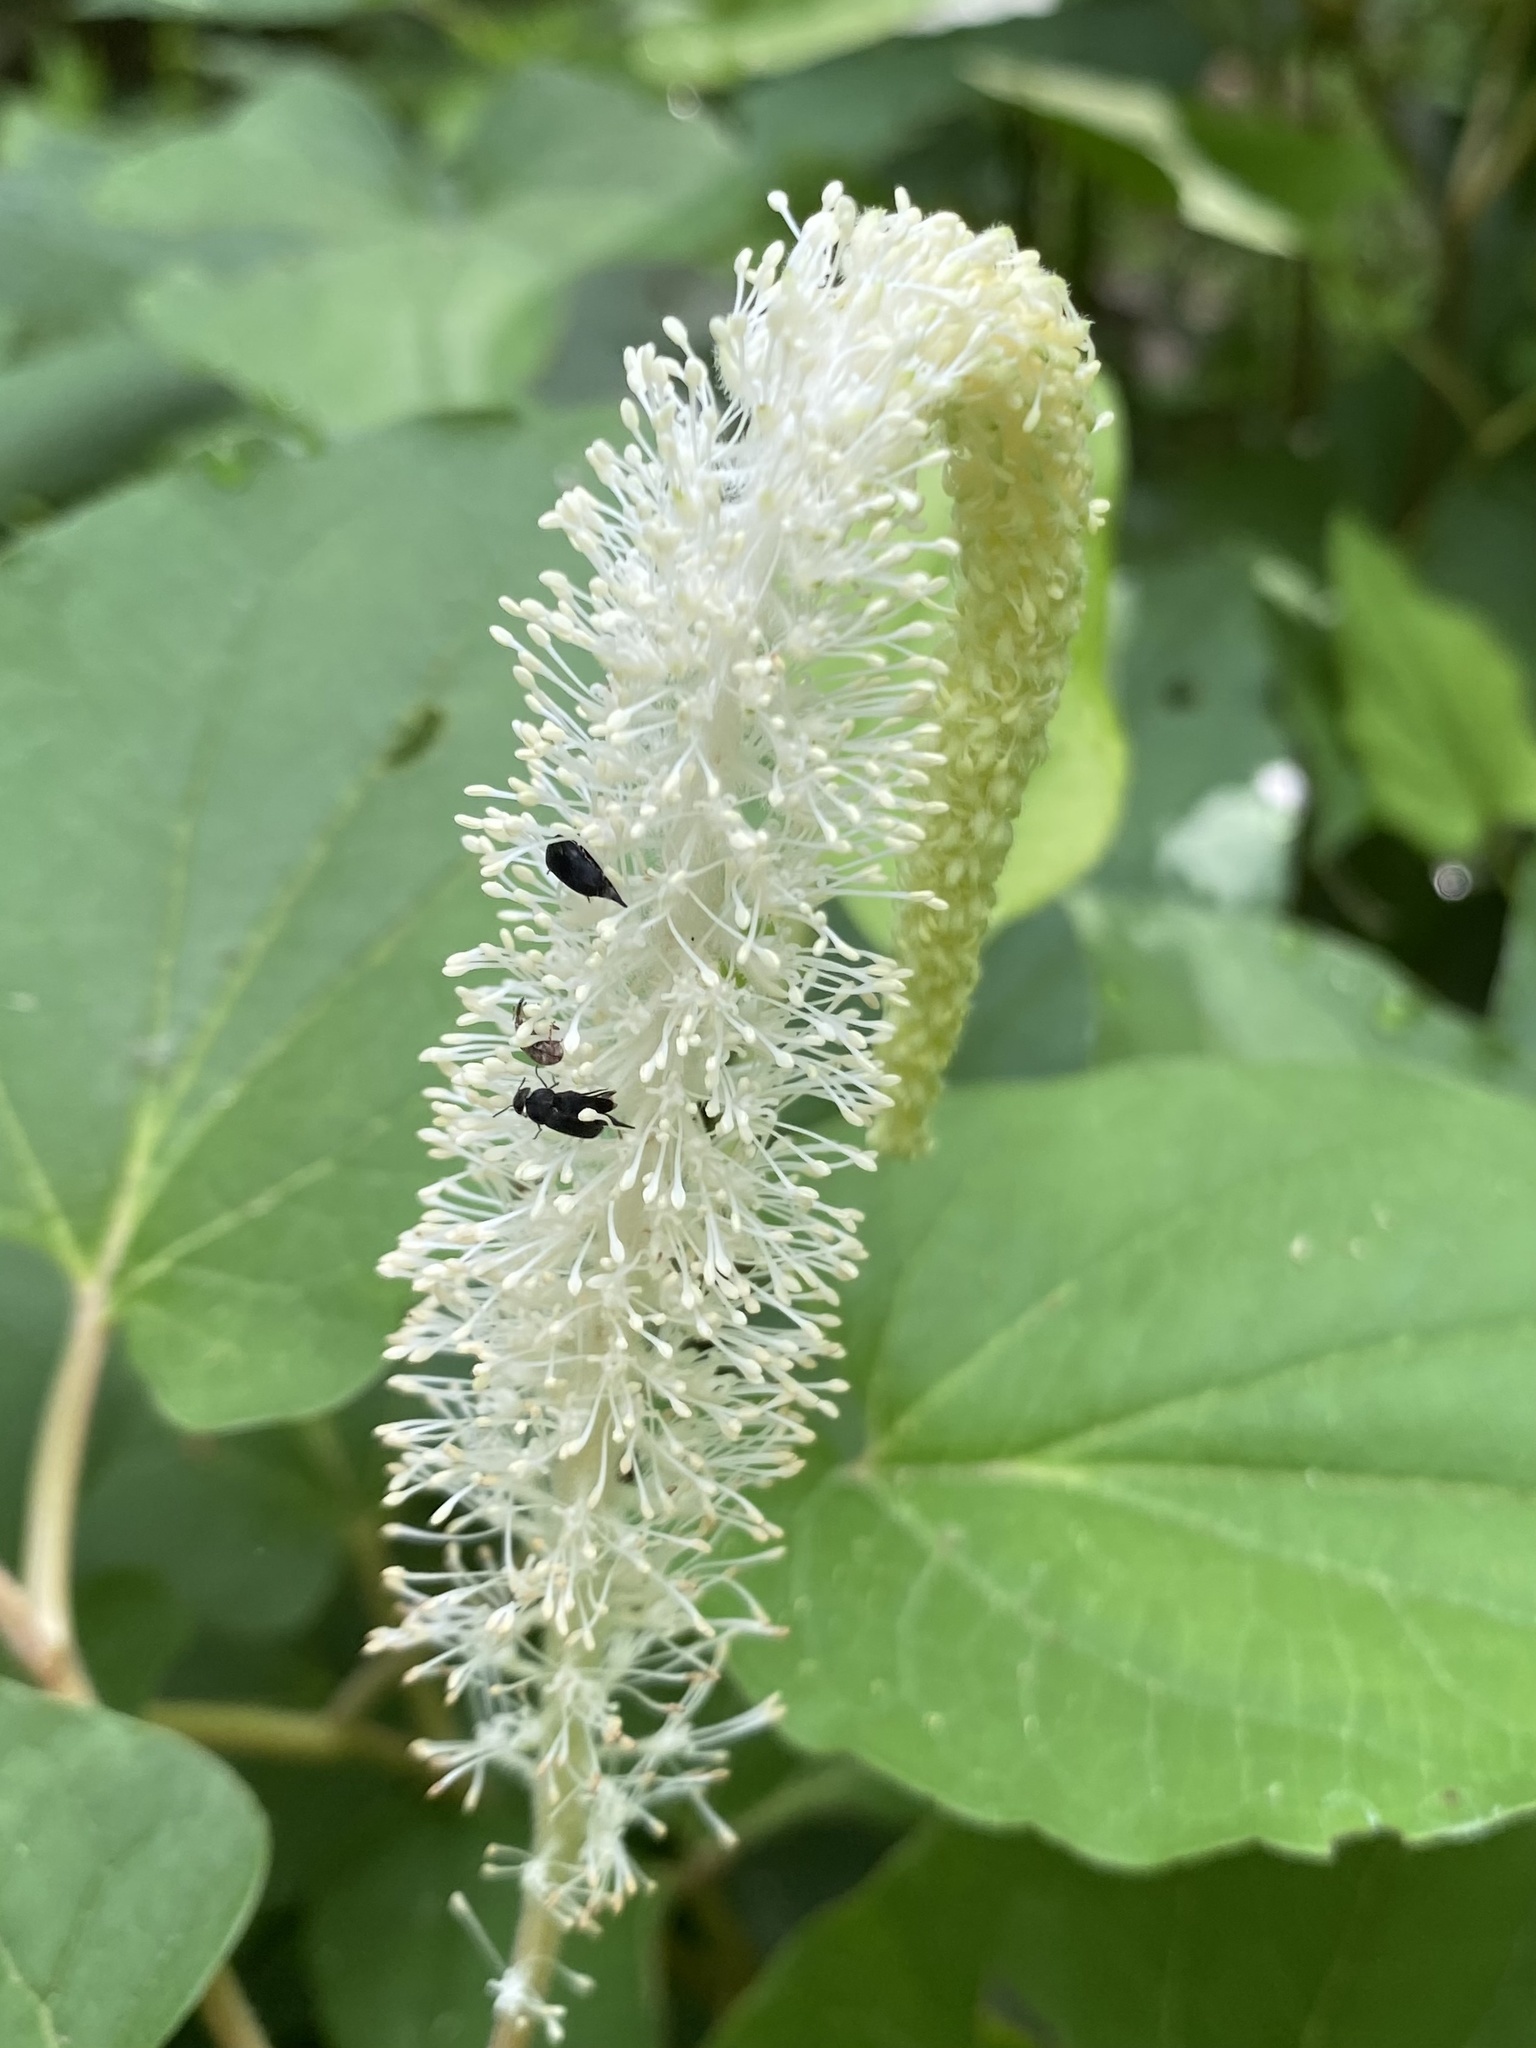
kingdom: Plantae
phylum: Tracheophyta
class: Magnoliopsida
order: Piperales
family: Saururaceae
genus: Saururus
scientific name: Saururus cernuus
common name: Lizard's-tail
